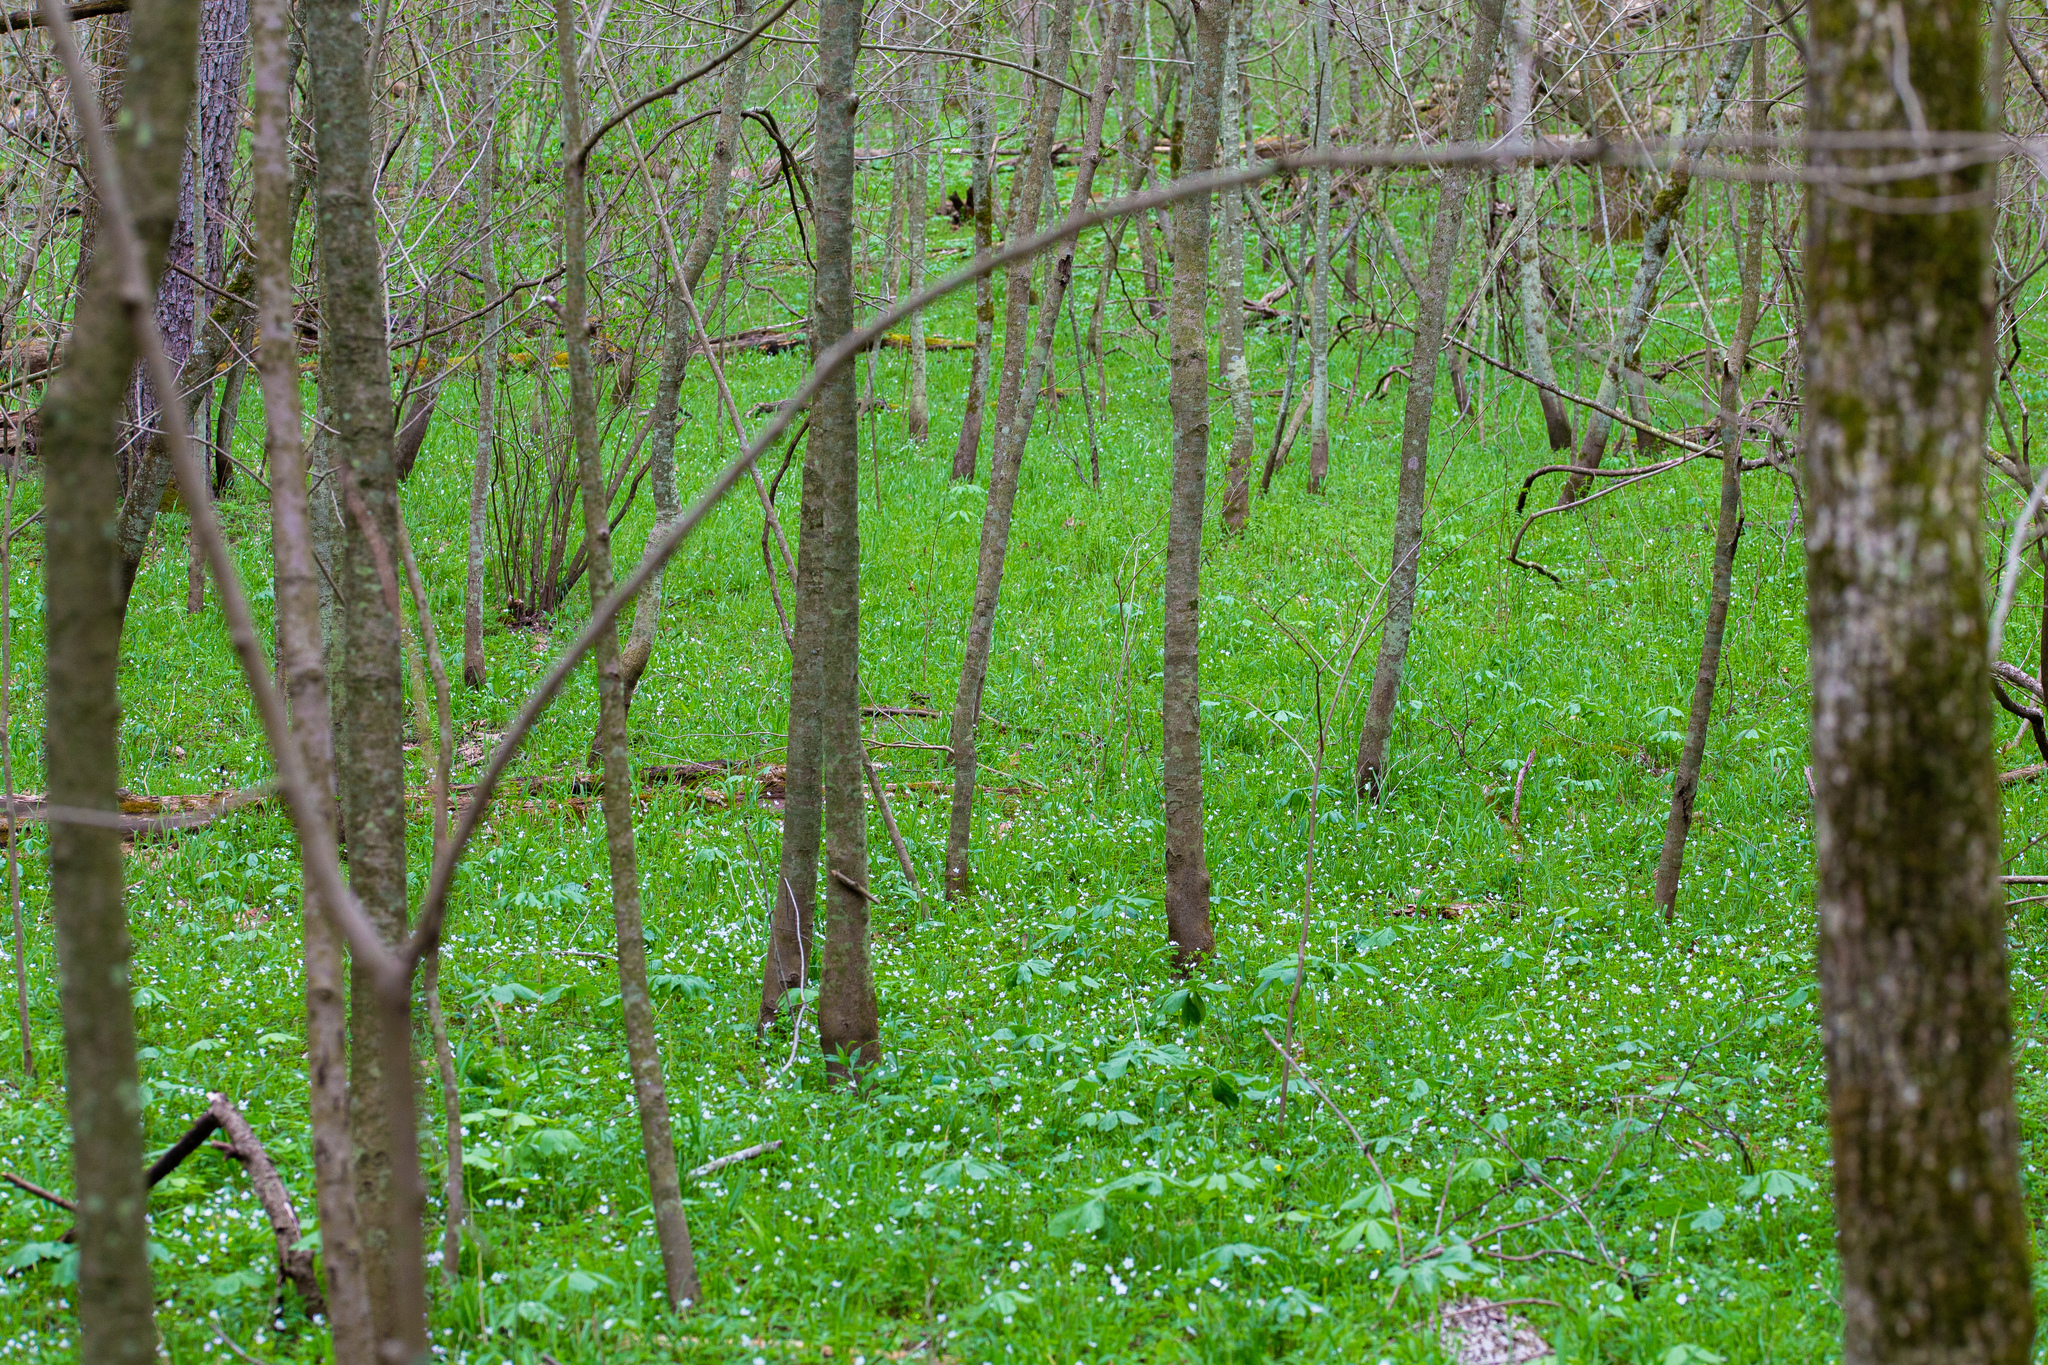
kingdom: Plantae
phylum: Tracheophyta
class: Magnoliopsida
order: Boraginales
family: Hydrophyllaceae
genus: Phacelia
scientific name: Phacelia covillei
